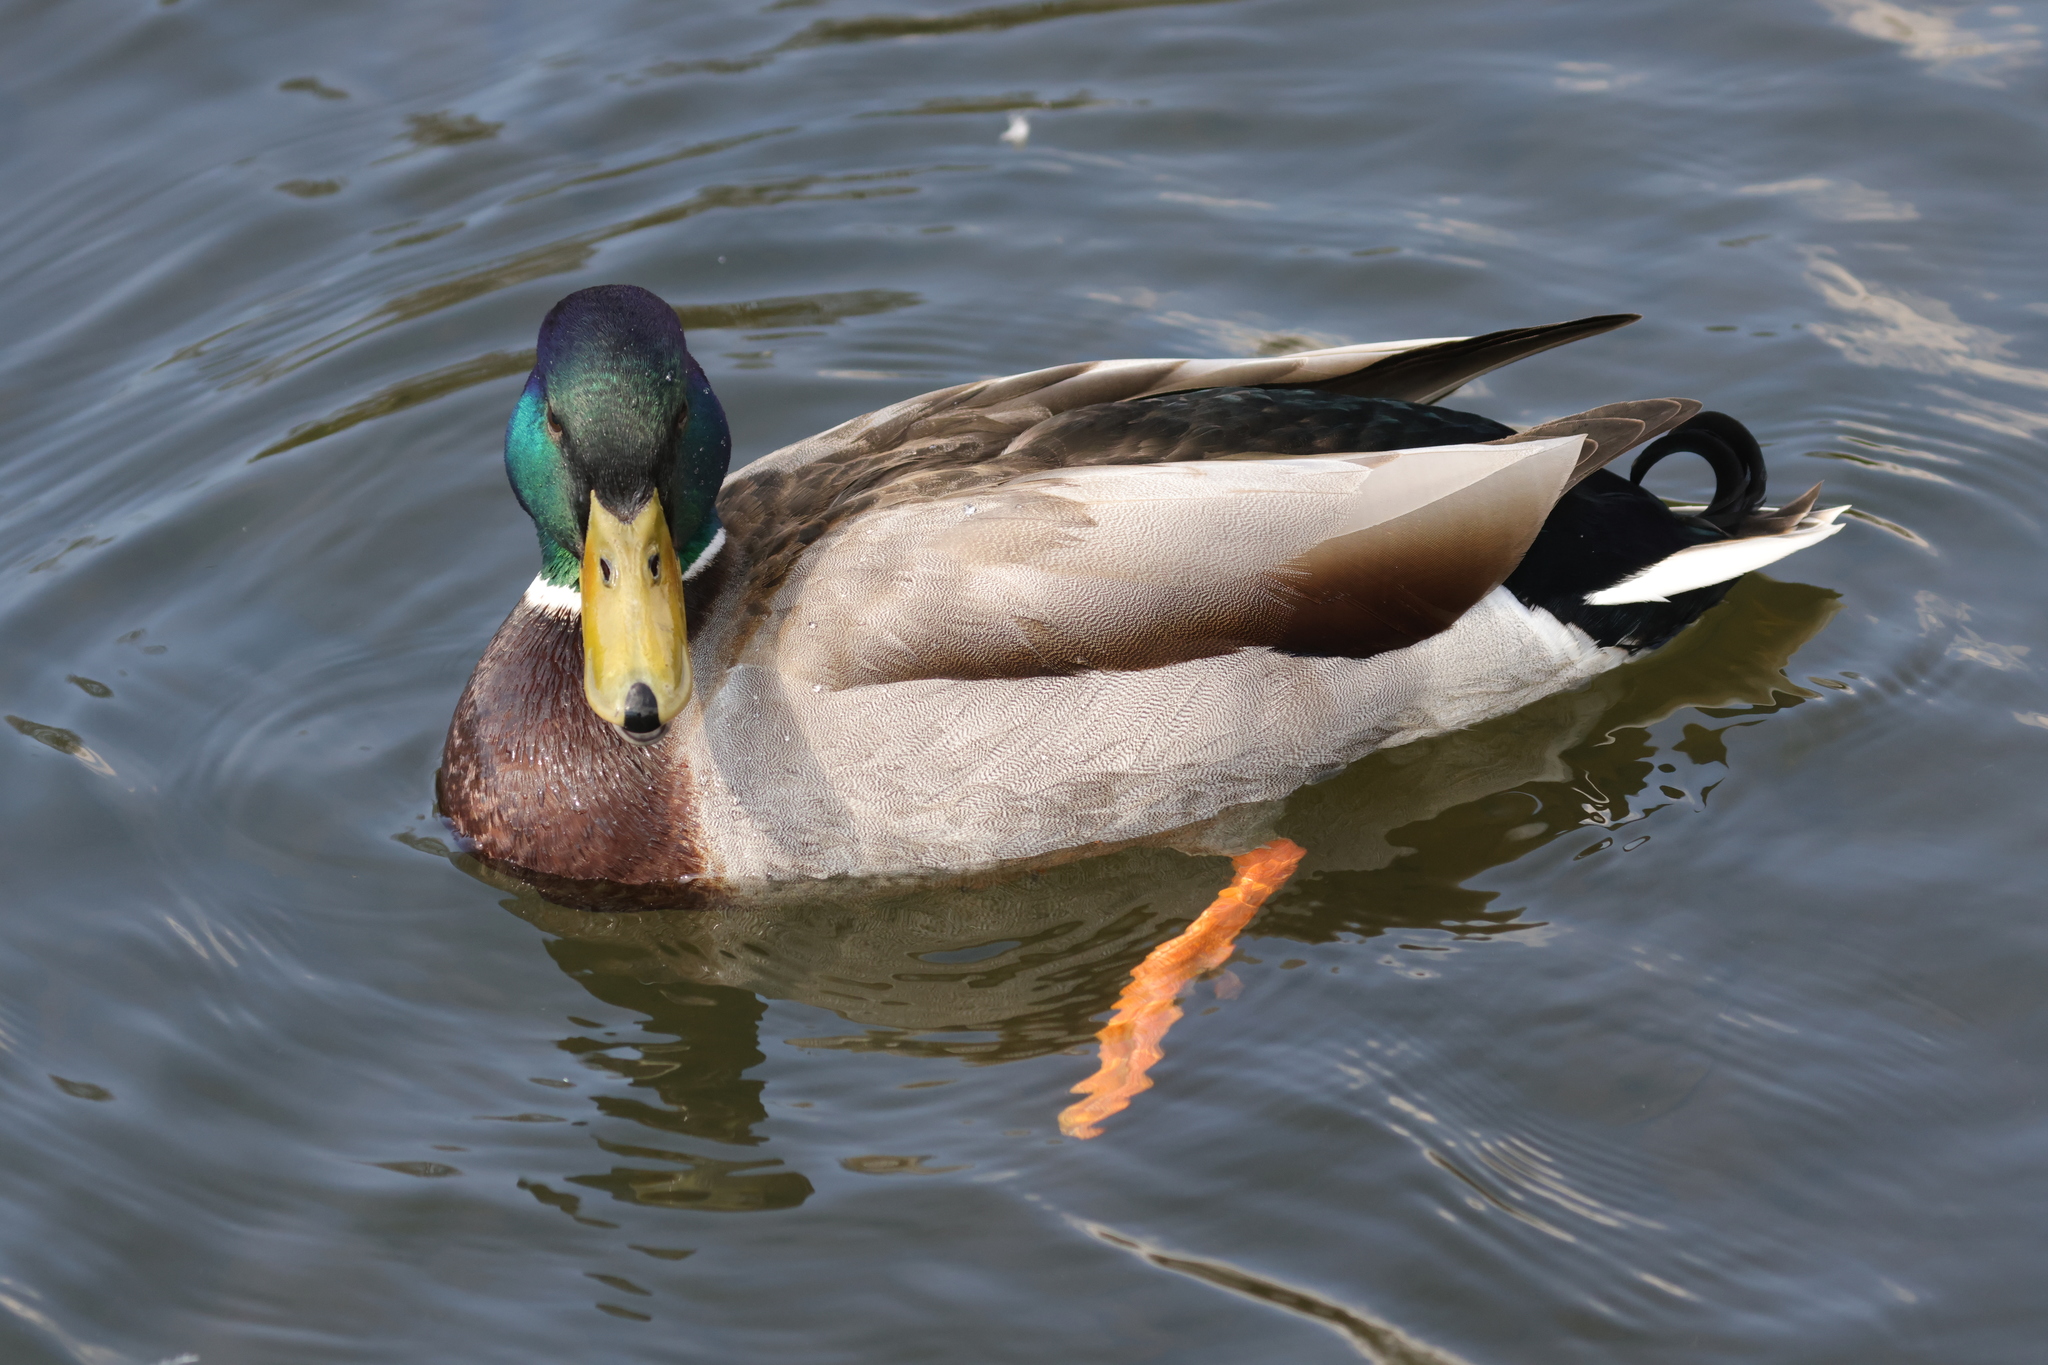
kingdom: Animalia
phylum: Chordata
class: Aves
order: Anseriformes
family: Anatidae
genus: Anas
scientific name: Anas platyrhynchos
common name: Mallard
